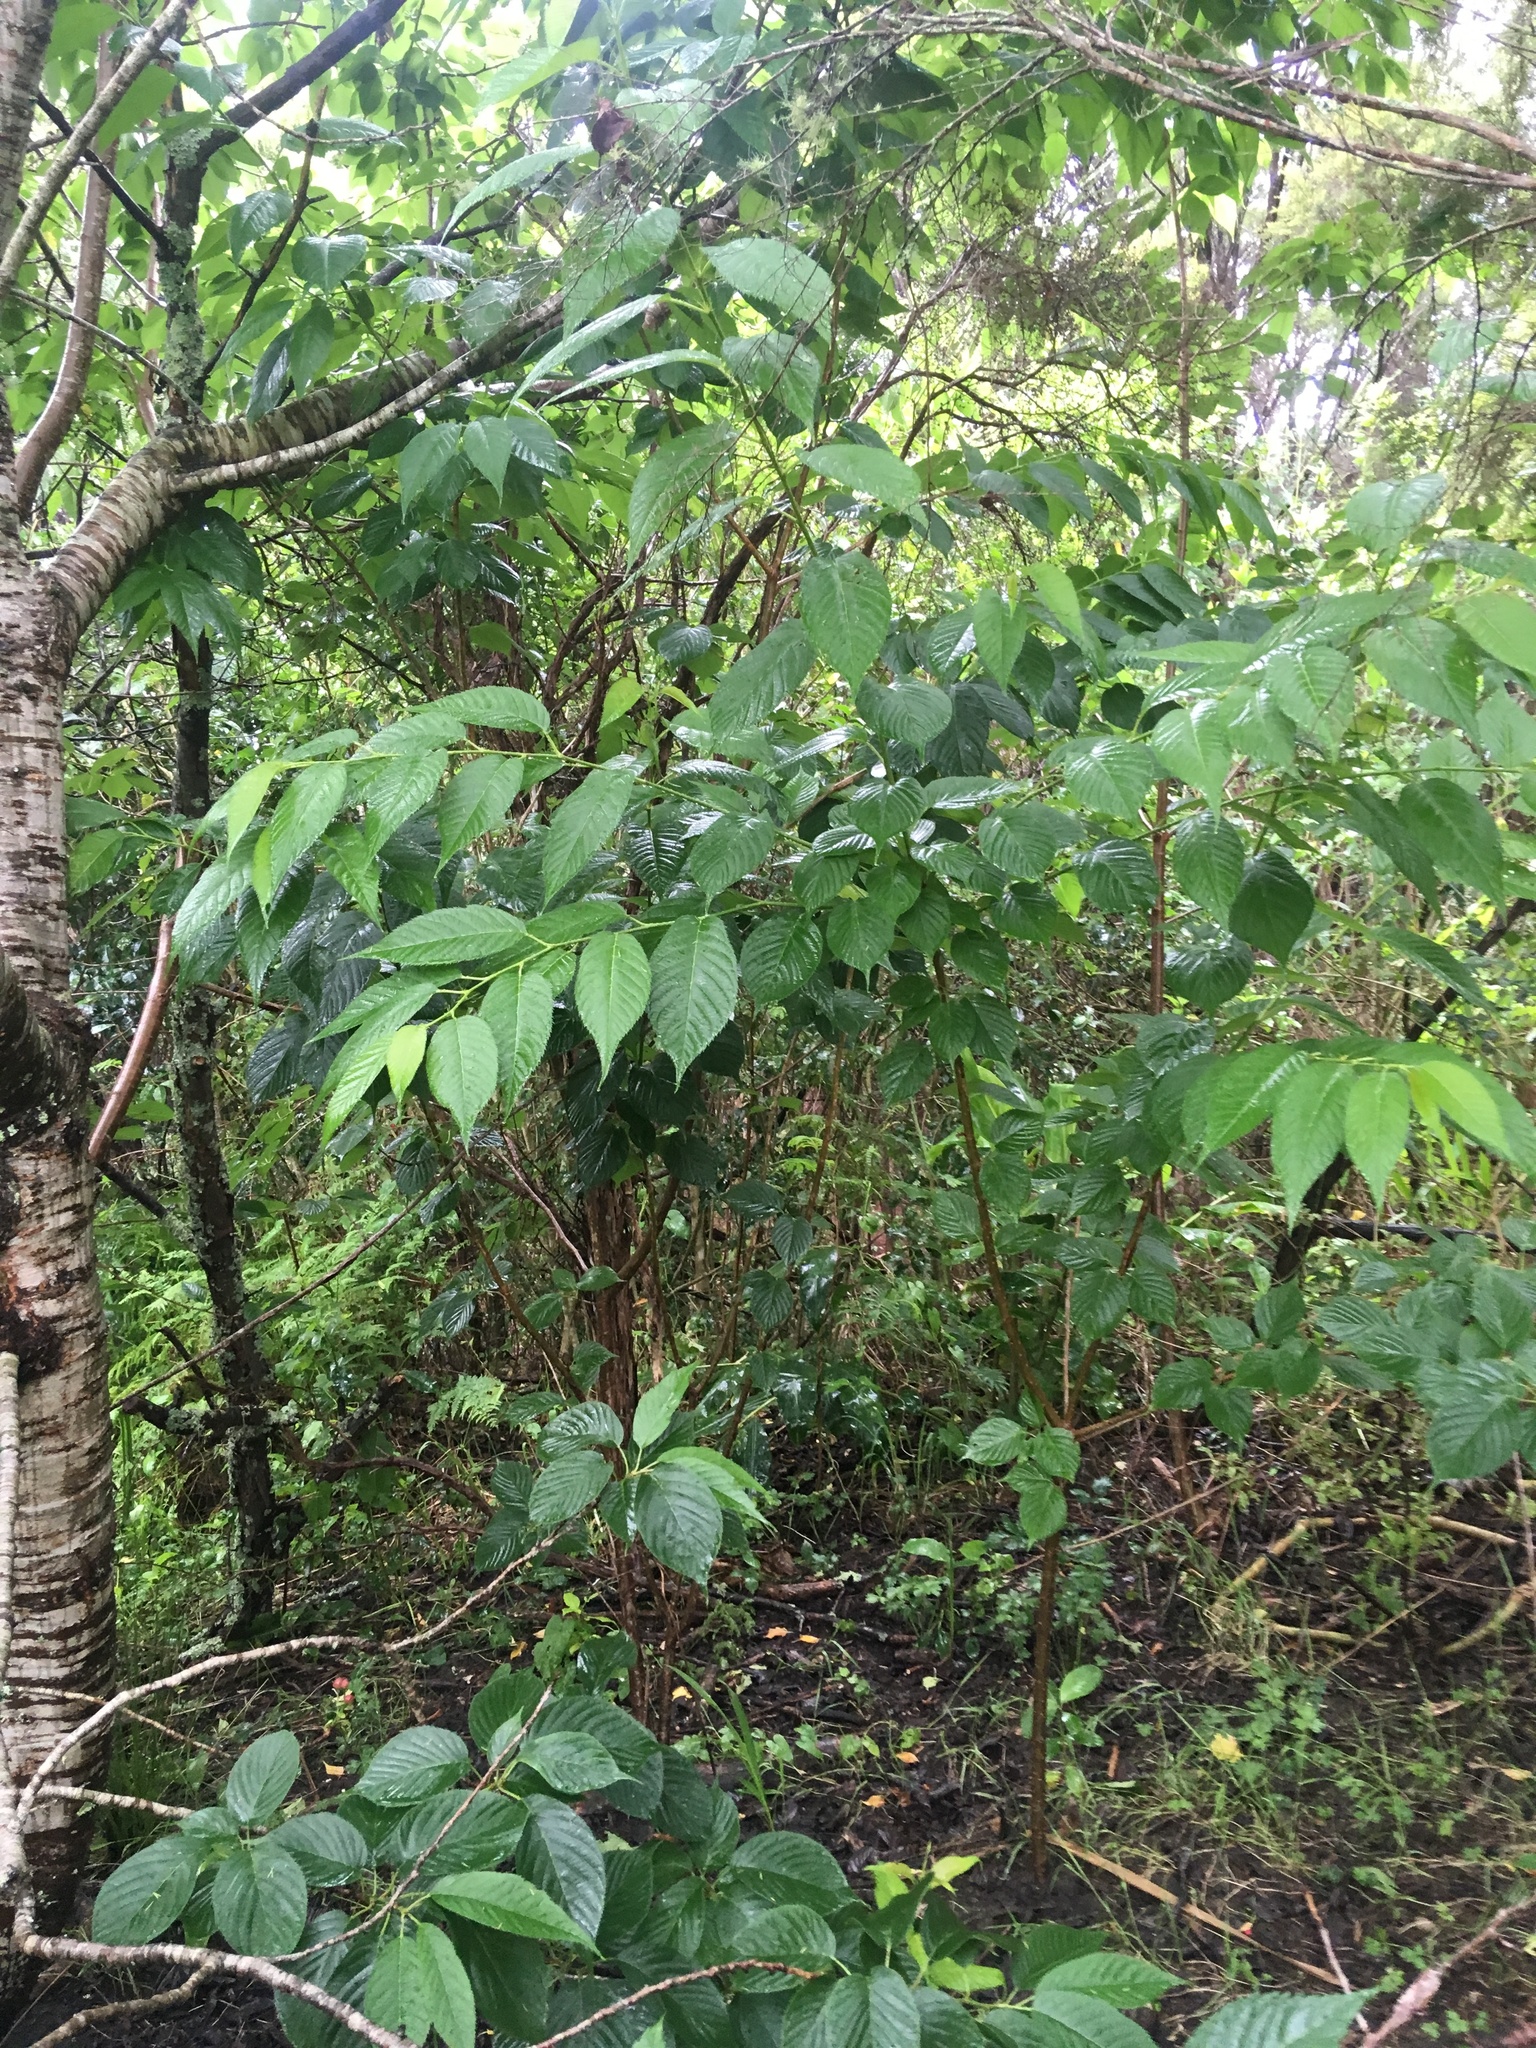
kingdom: Plantae
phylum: Tracheophyta
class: Magnoliopsida
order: Rosales
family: Rosaceae
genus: Prunus
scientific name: Prunus serrulata
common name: Japanese cherry
